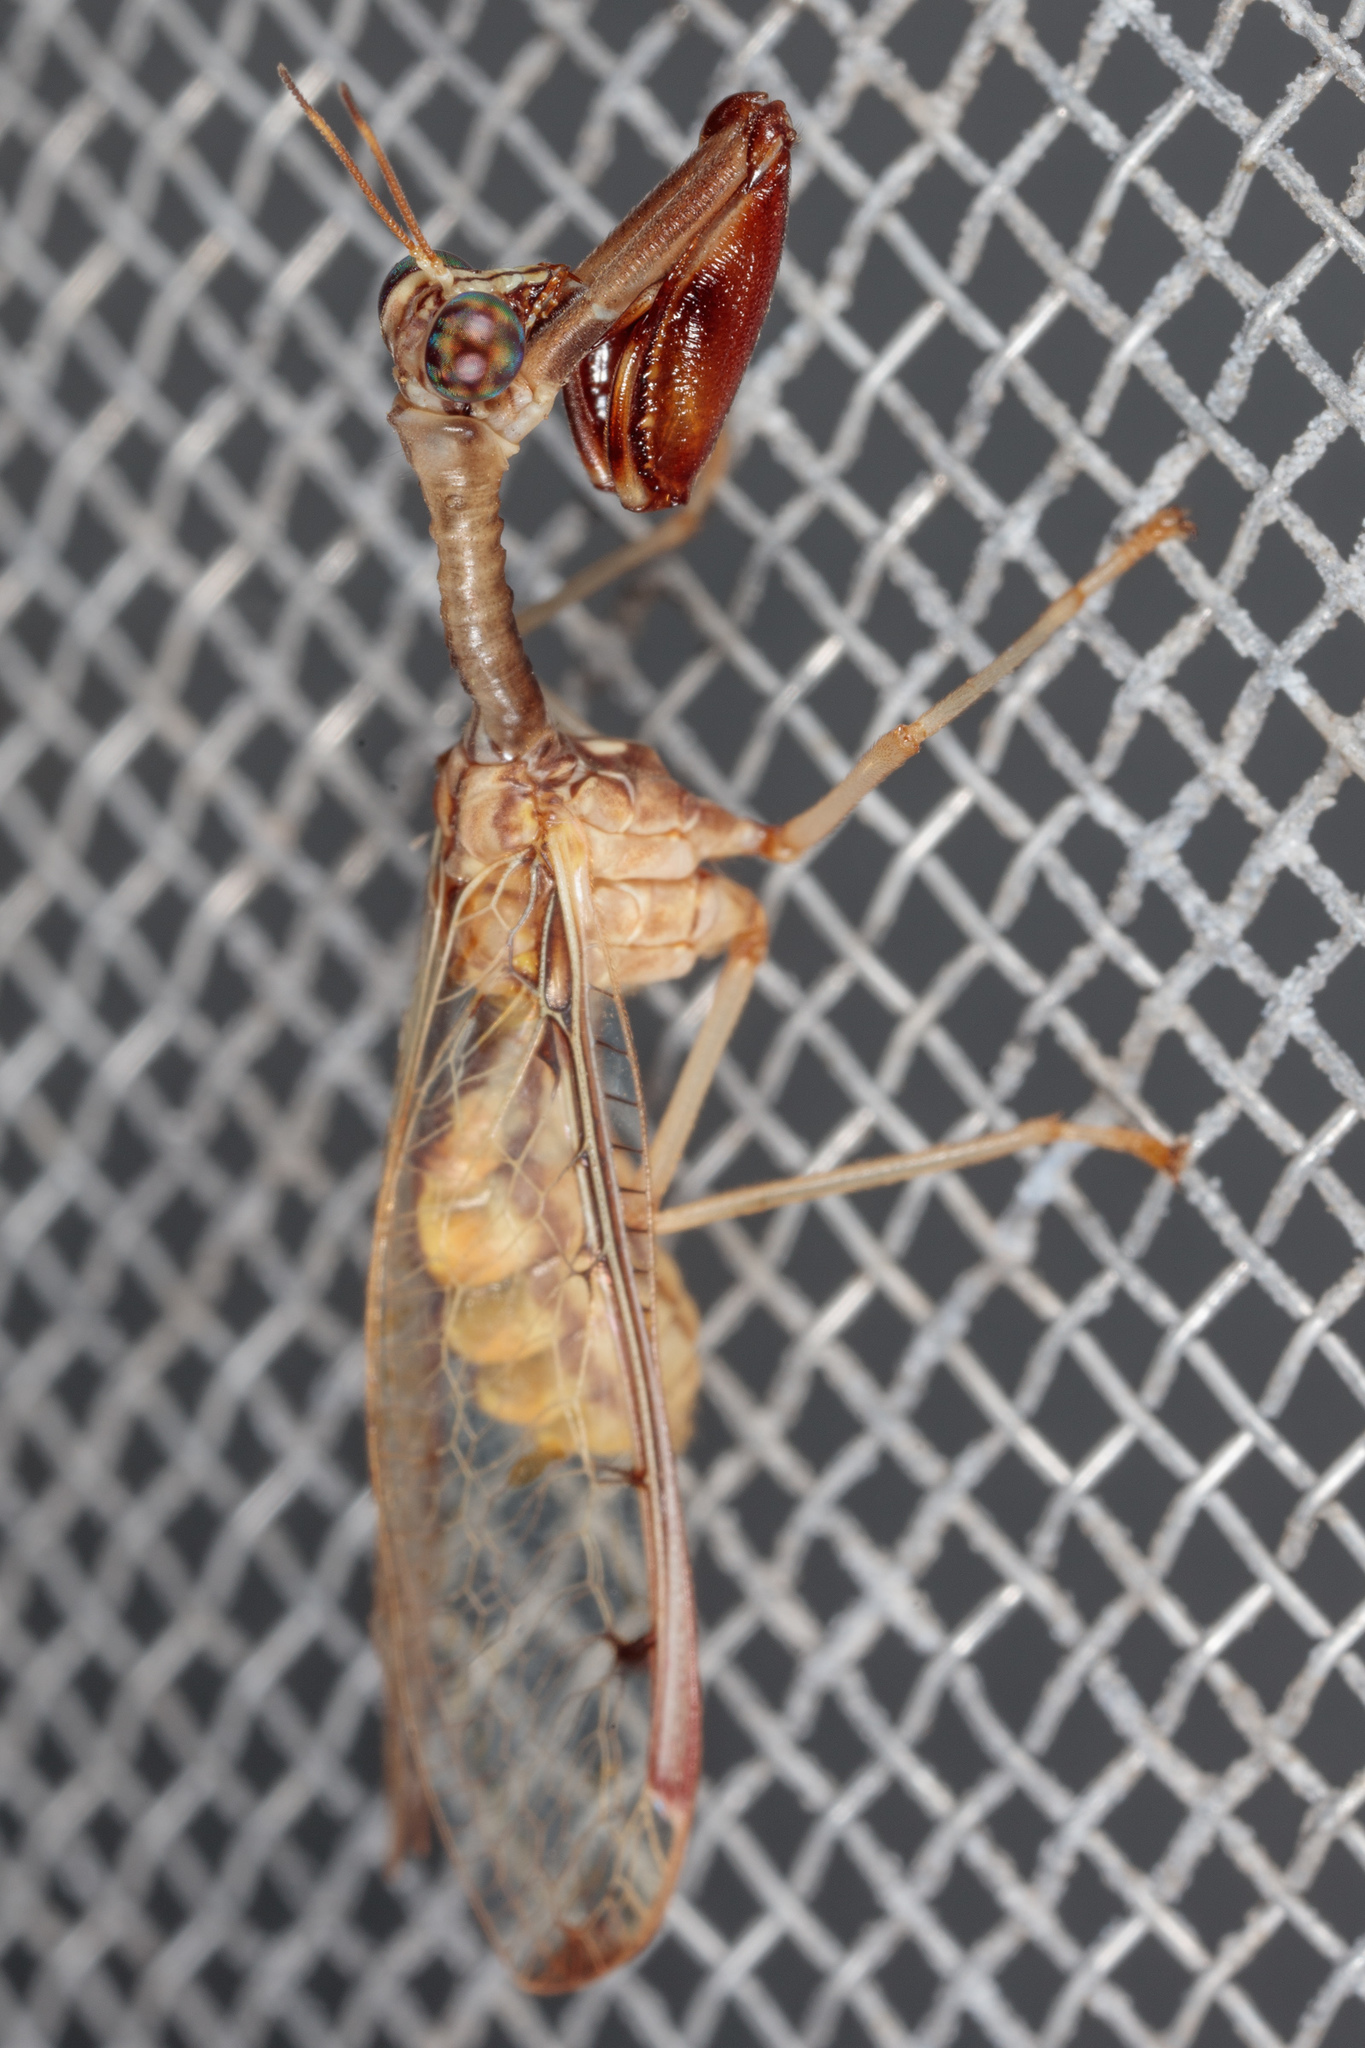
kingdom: Animalia
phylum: Arthropoda
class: Insecta
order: Neuroptera
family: Mantispidae
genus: Dicromantispa
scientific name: Dicromantispa interrupta
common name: Four-spotted mantidfly
